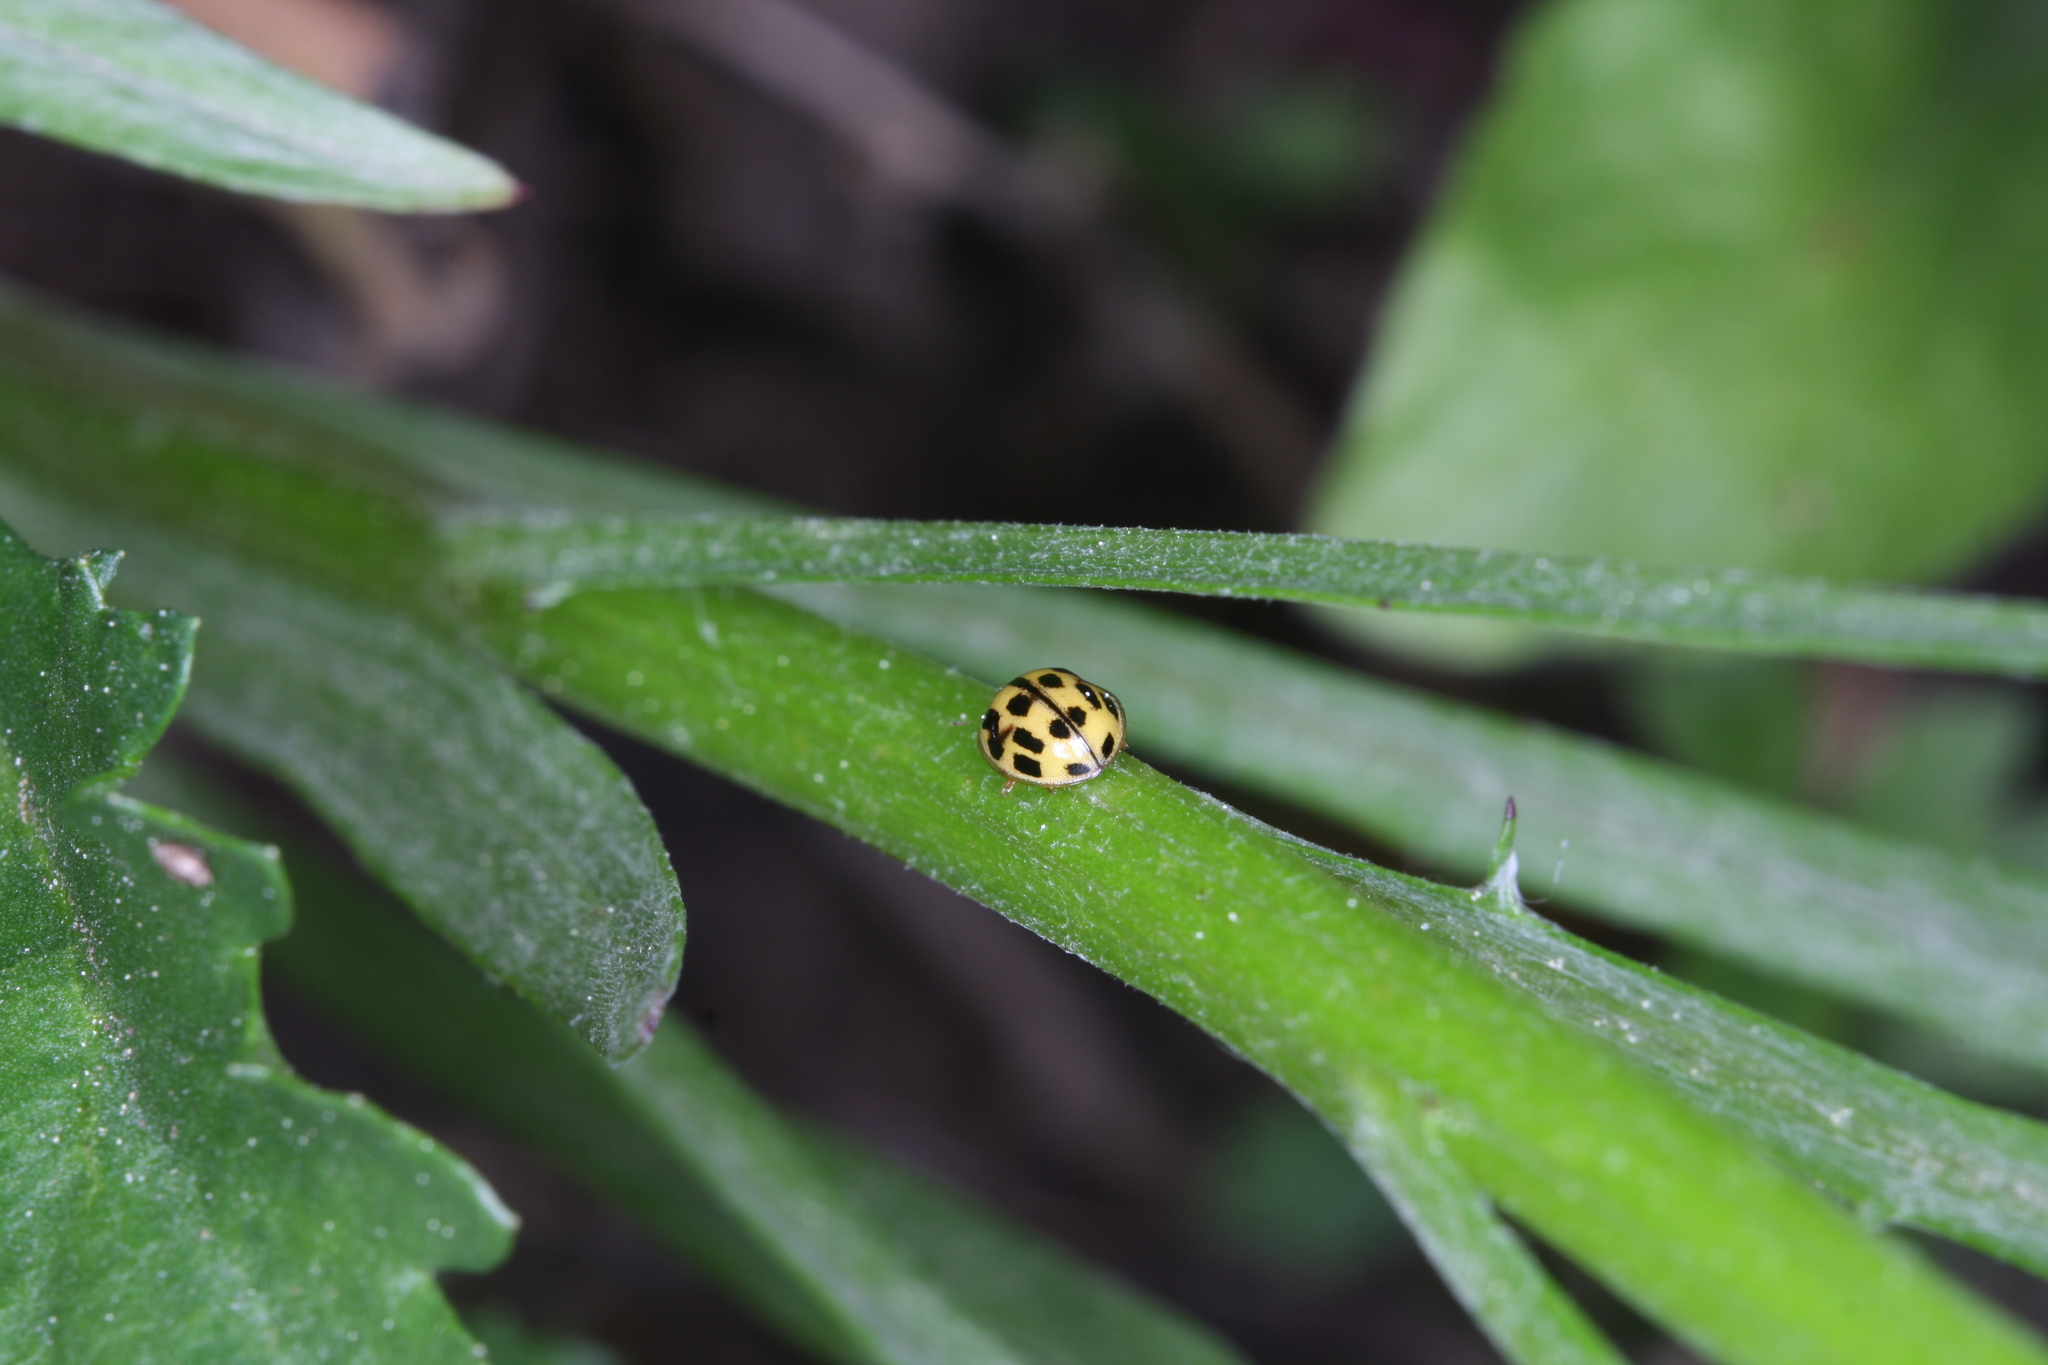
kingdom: Animalia
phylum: Arthropoda
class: Insecta
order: Coleoptera
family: Coccinellidae
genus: Propylaea
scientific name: Propylaea quatuordecimpunctata
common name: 14-spotted ladybird beetle
